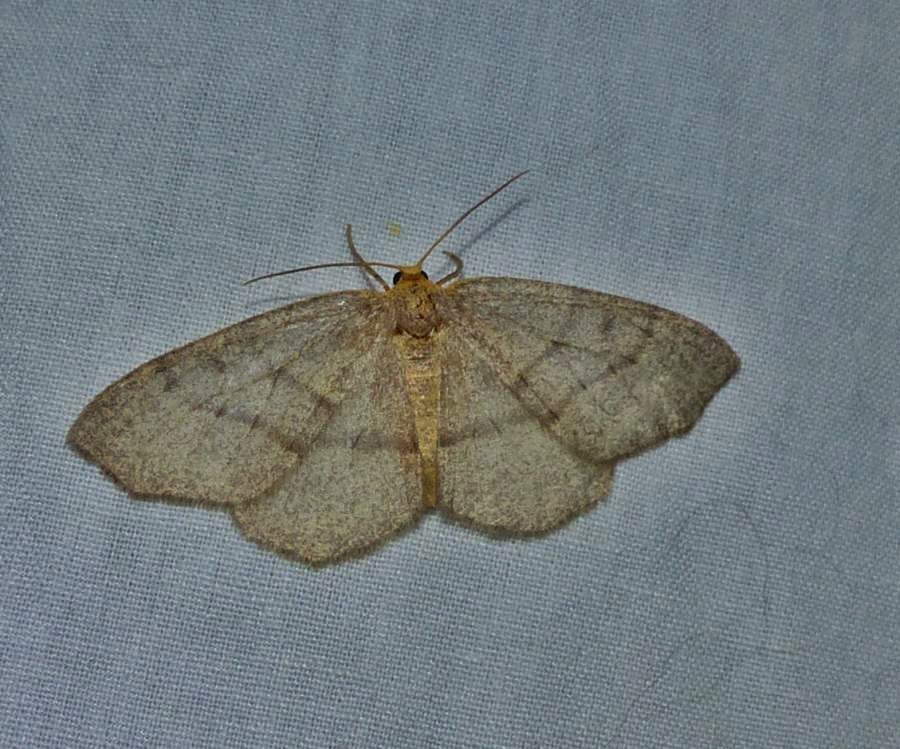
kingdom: Animalia
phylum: Arthropoda
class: Insecta
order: Lepidoptera
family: Geometridae
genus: Lambdina
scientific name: Lambdina fervidaria
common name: Curve-lined looper moth
